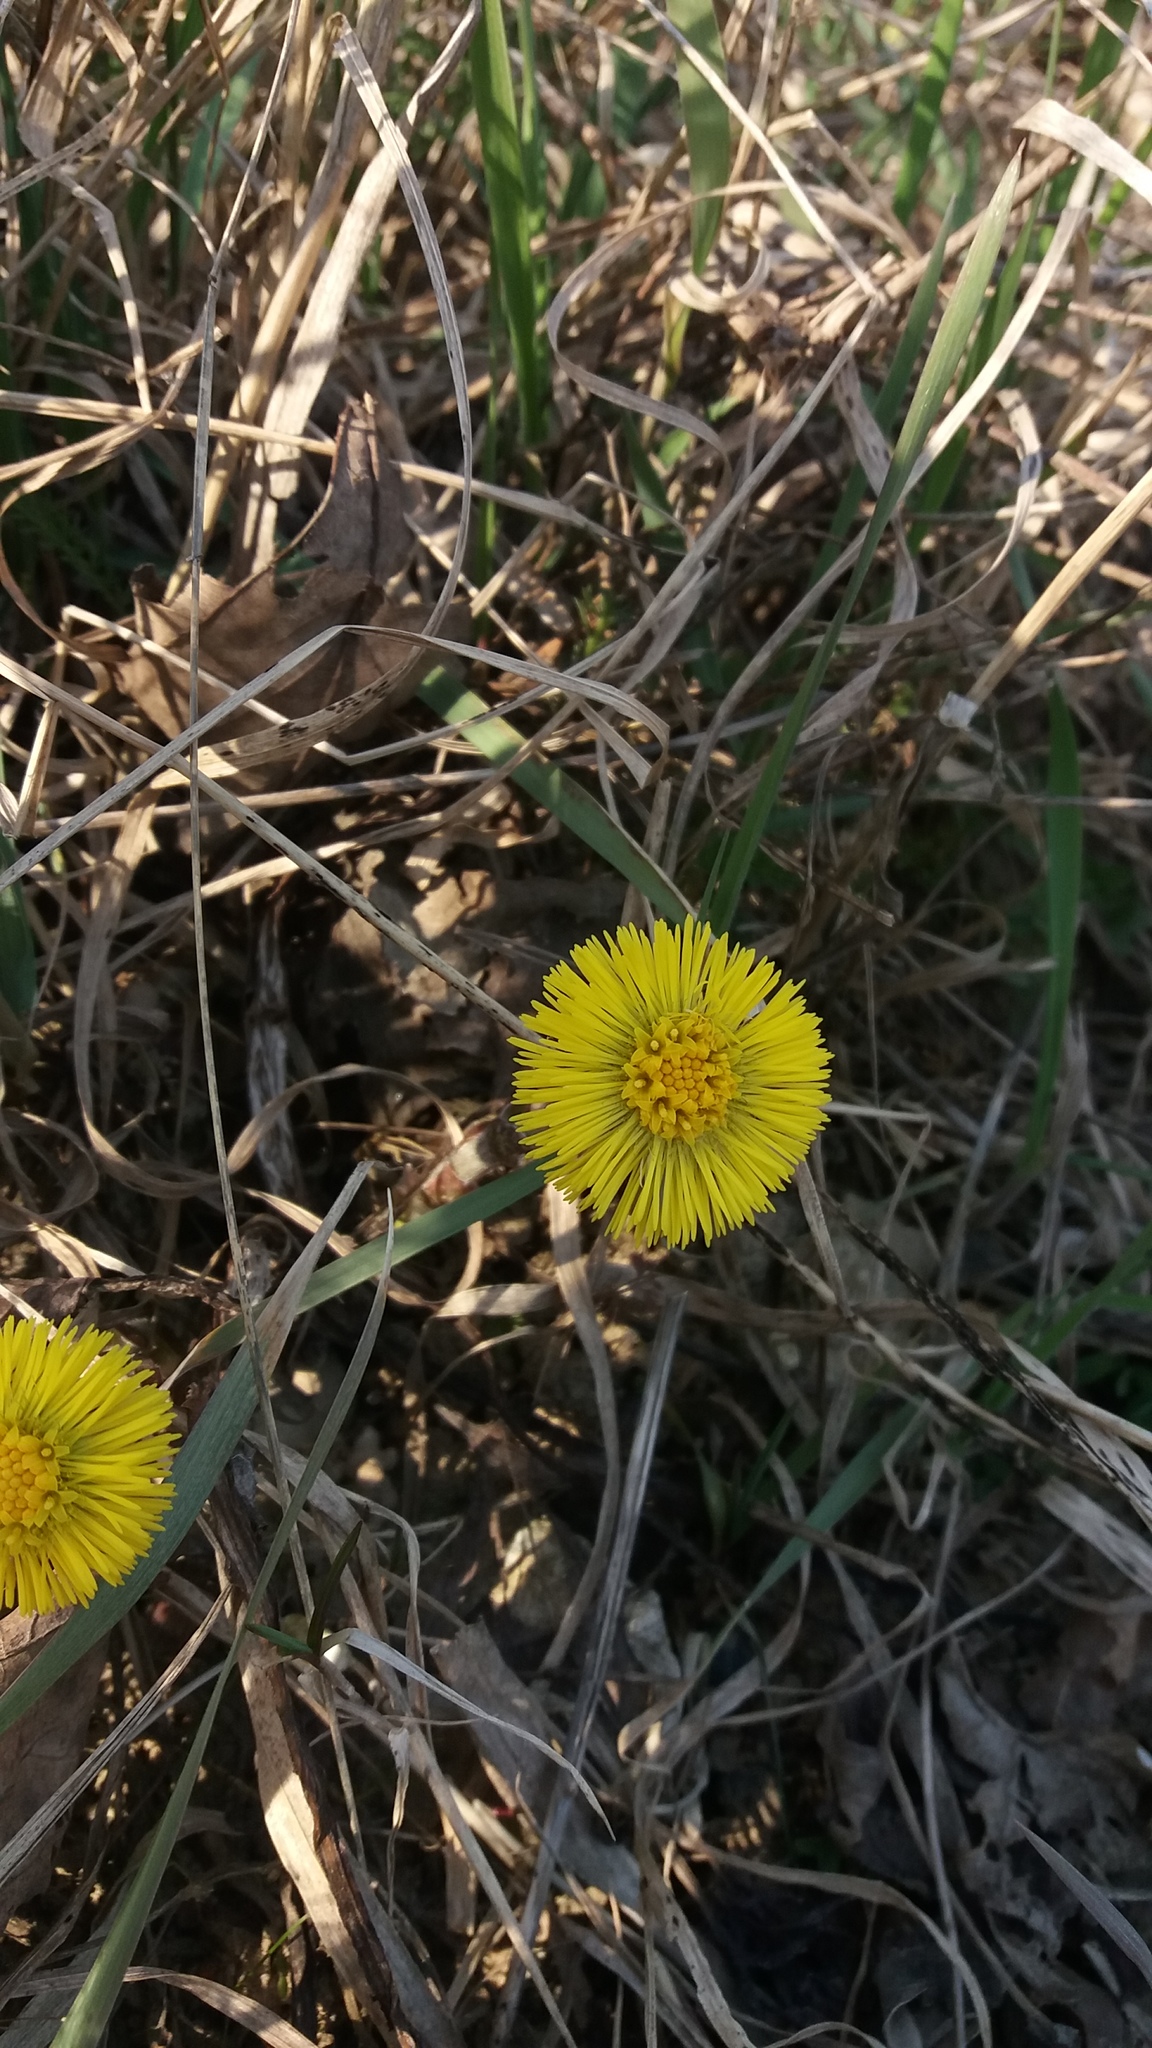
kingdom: Plantae
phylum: Tracheophyta
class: Magnoliopsida
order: Asterales
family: Asteraceae
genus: Tussilago
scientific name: Tussilago farfara
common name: Coltsfoot
